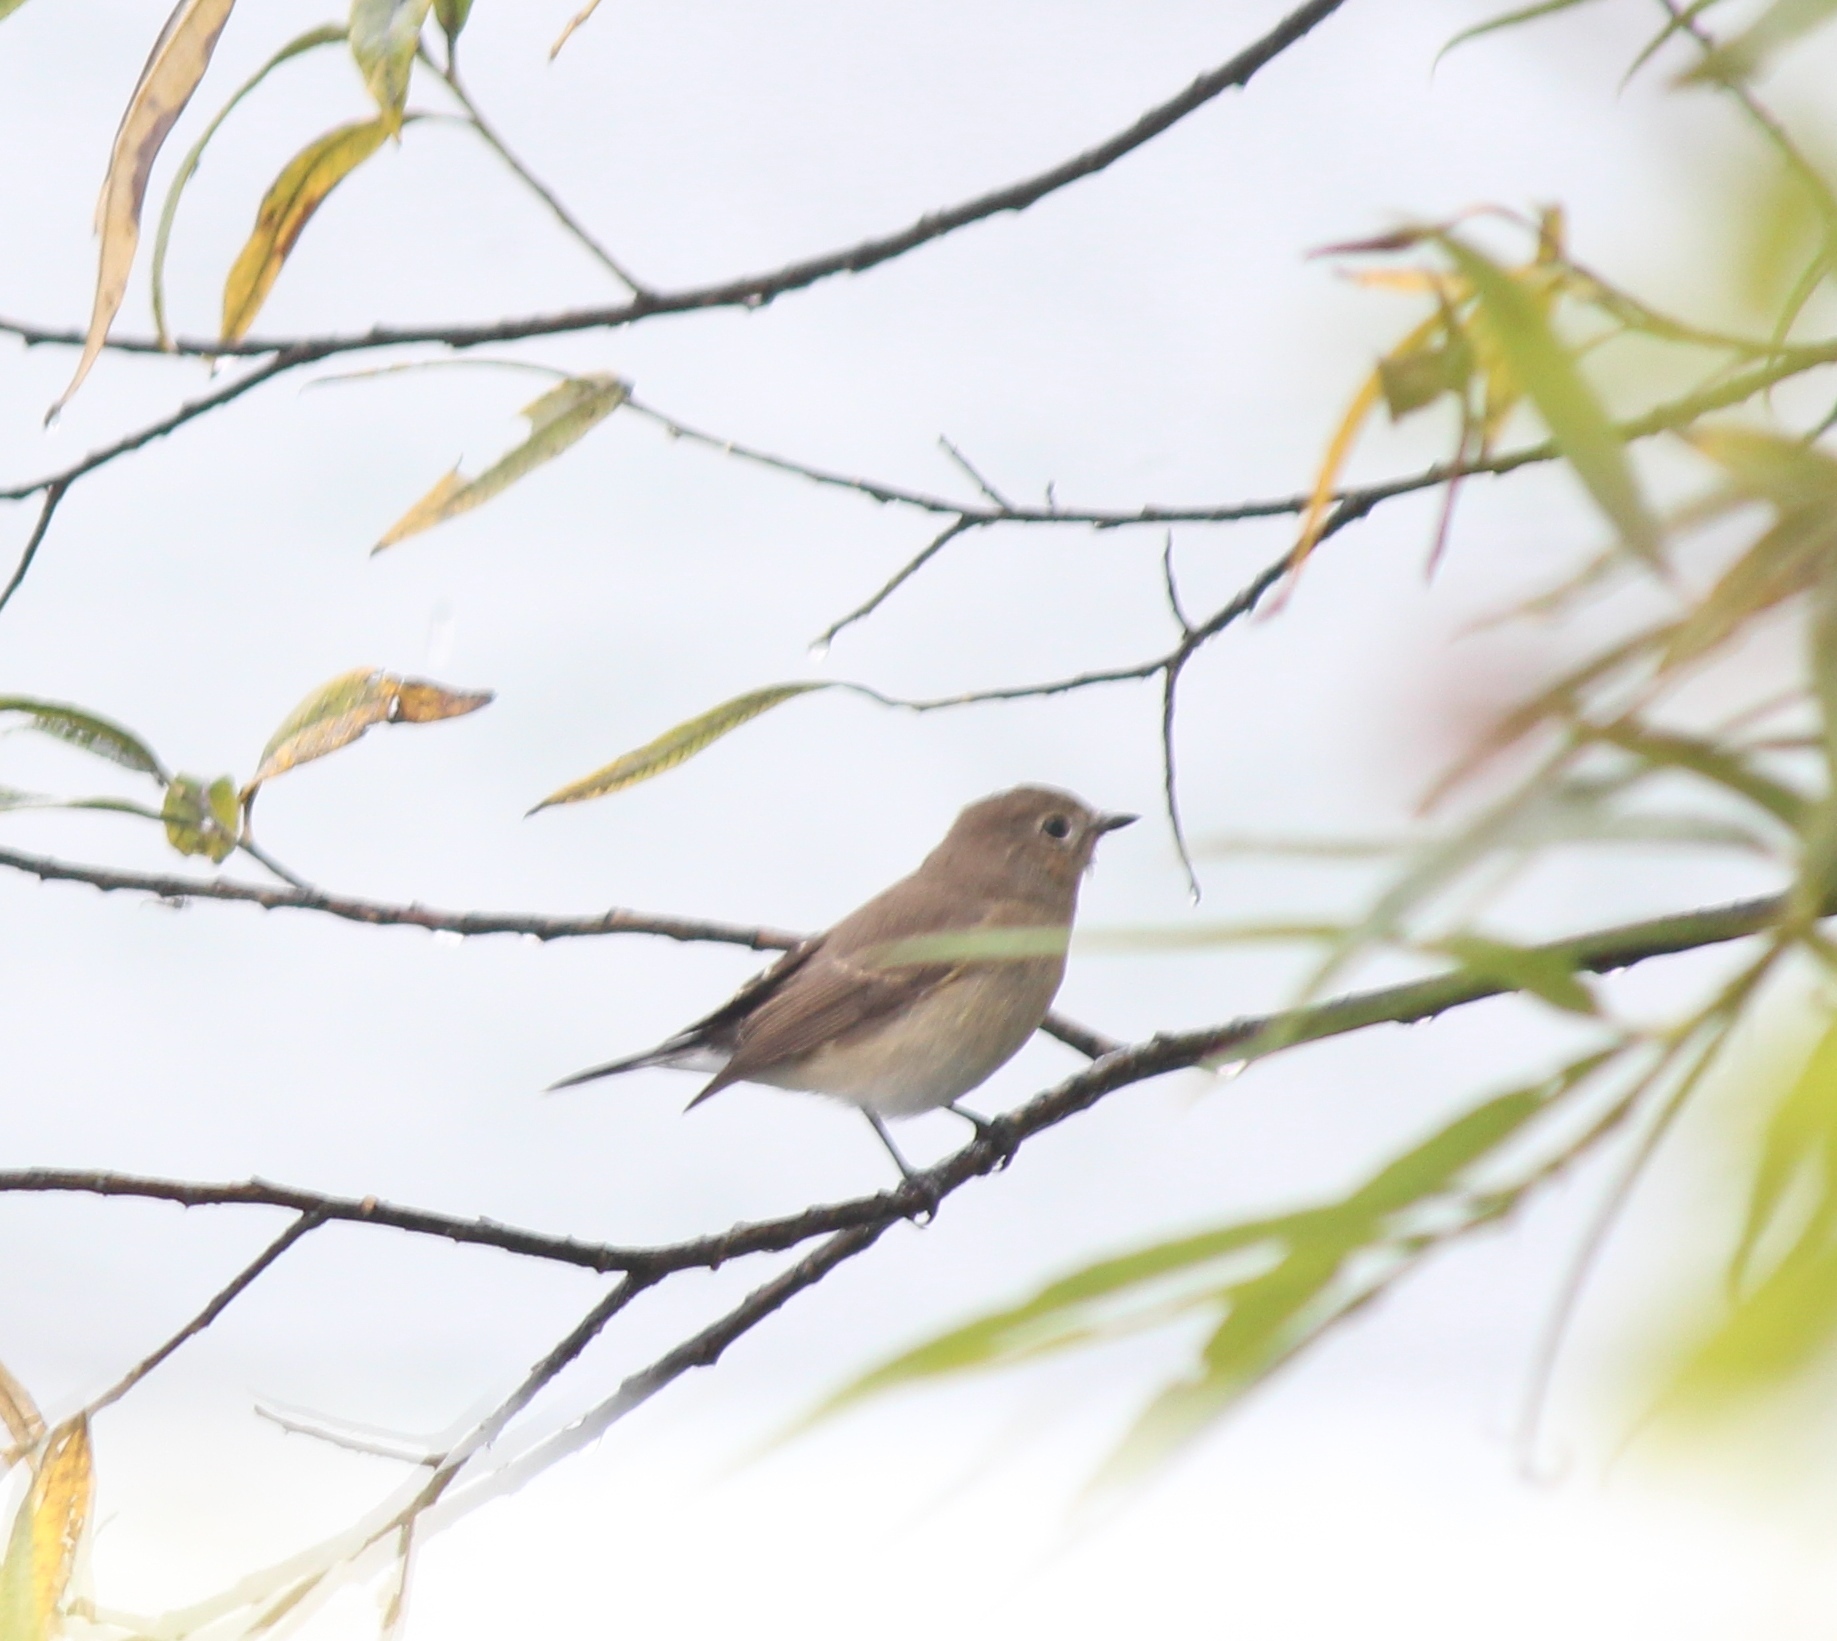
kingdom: Animalia
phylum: Chordata
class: Aves
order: Passeriformes
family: Muscicapidae
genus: Ficedula
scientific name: Ficedula albicilla
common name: Taiga flycatcher
